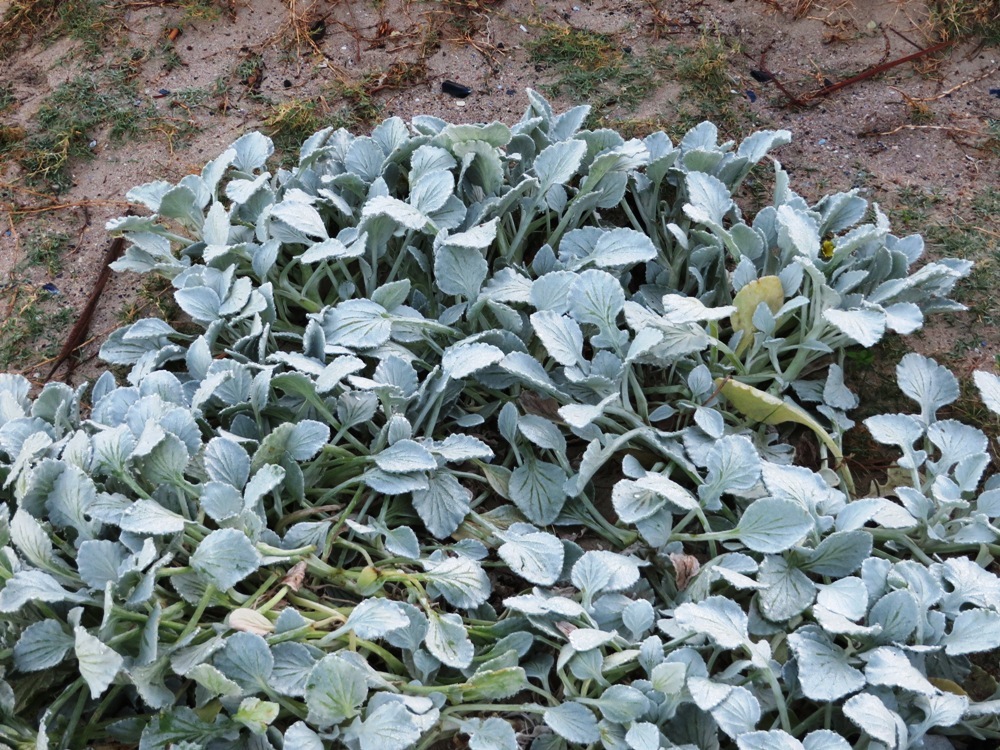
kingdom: Plantae
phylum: Tracheophyta
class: Magnoliopsida
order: Asterales
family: Asteraceae
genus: Arctotheca
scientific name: Arctotheca populifolia
